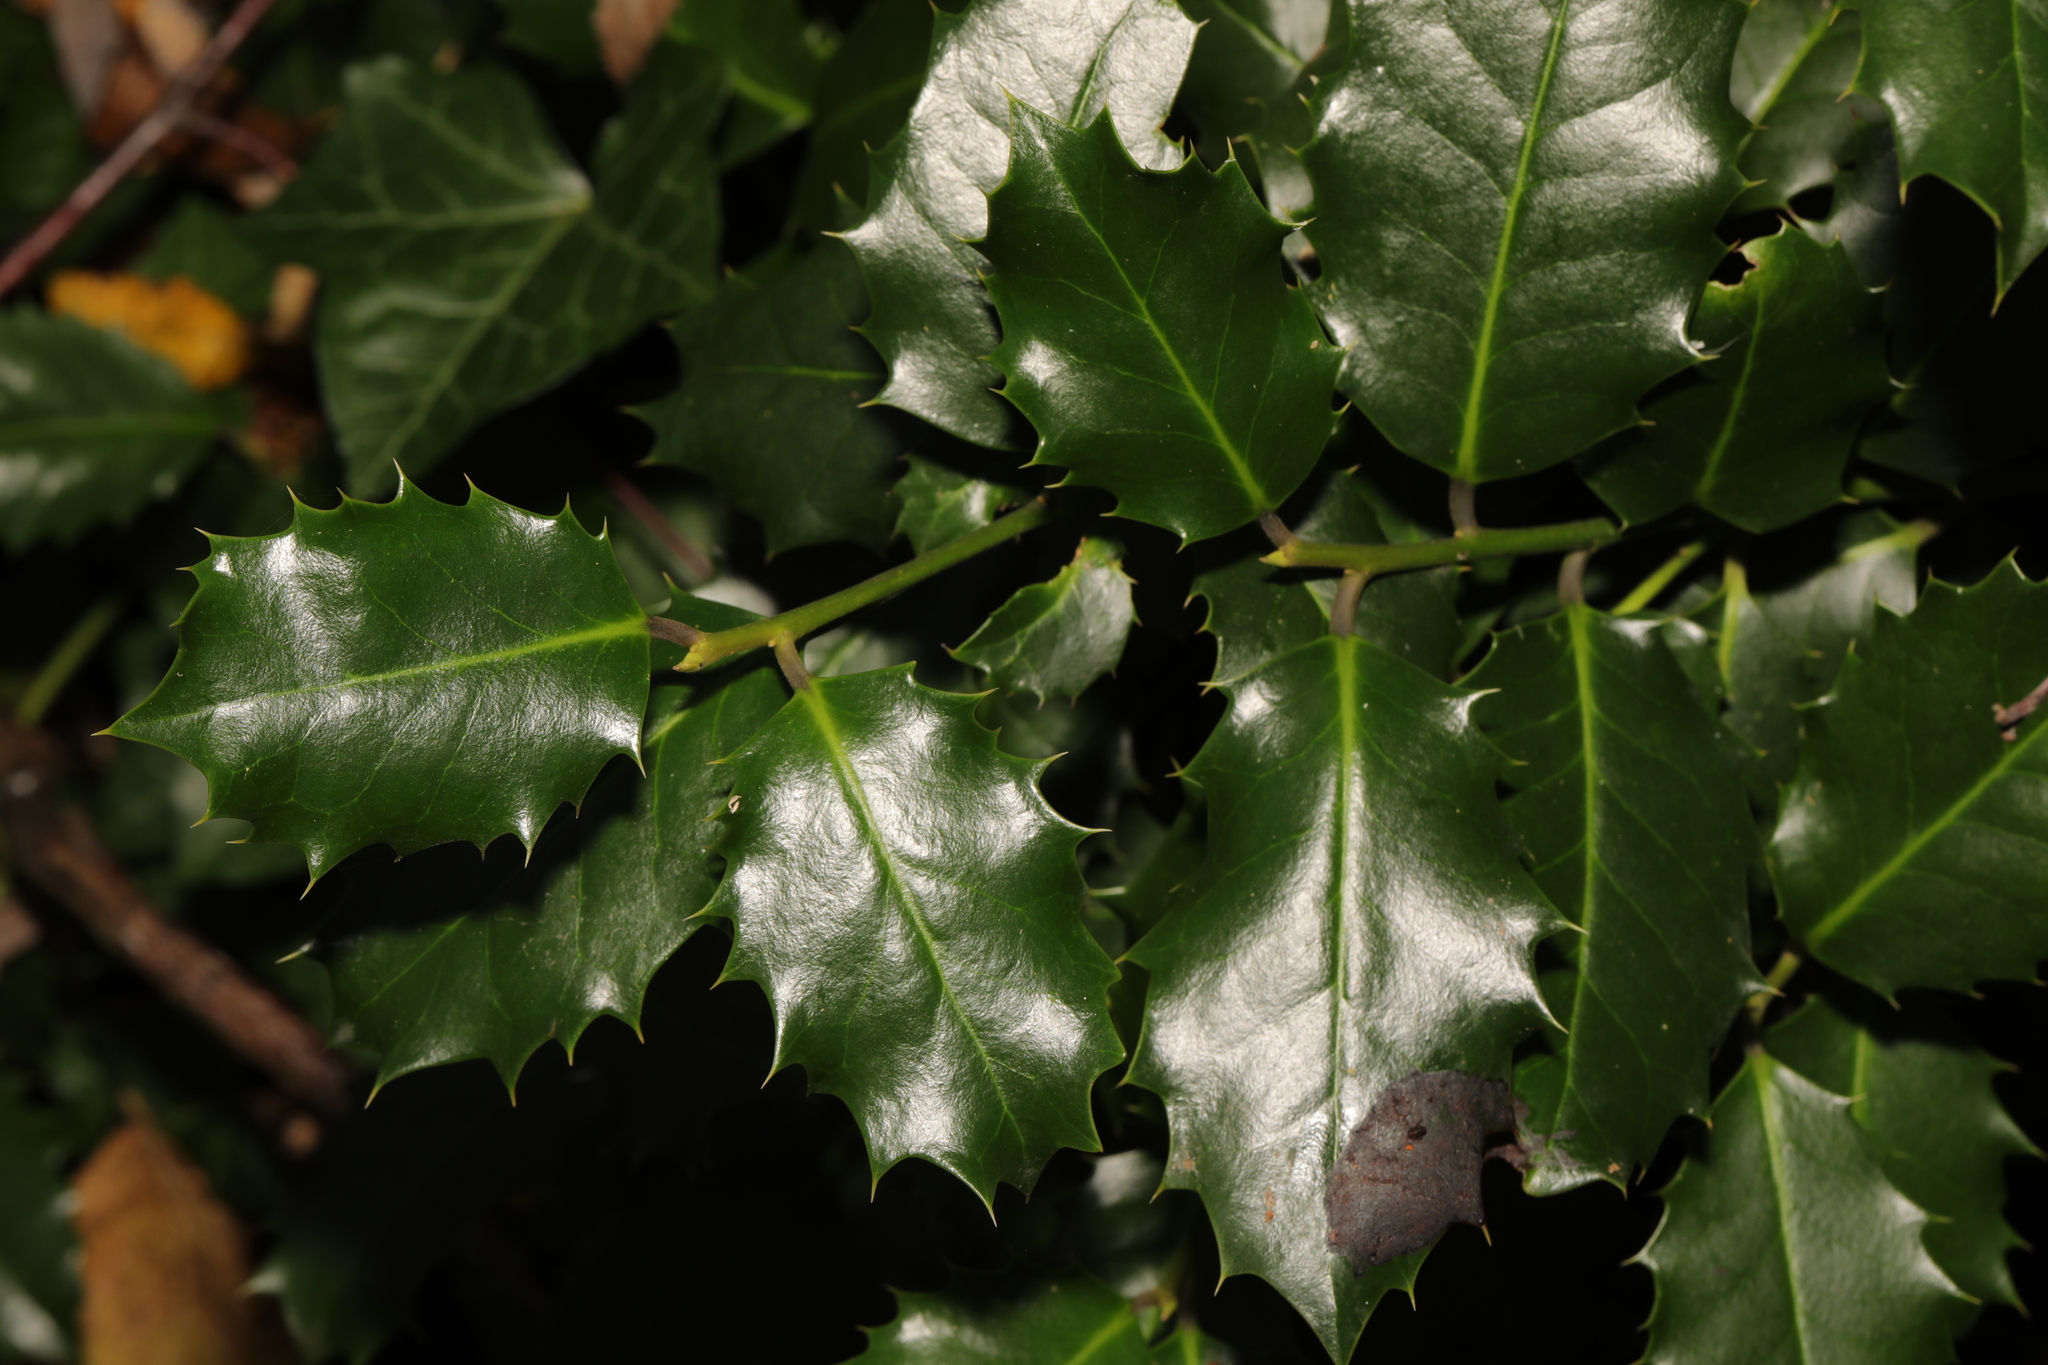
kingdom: Plantae
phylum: Tracheophyta
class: Magnoliopsida
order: Aquifoliales
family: Aquifoliaceae
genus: Ilex
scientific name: Ilex aquifolium
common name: English holly
